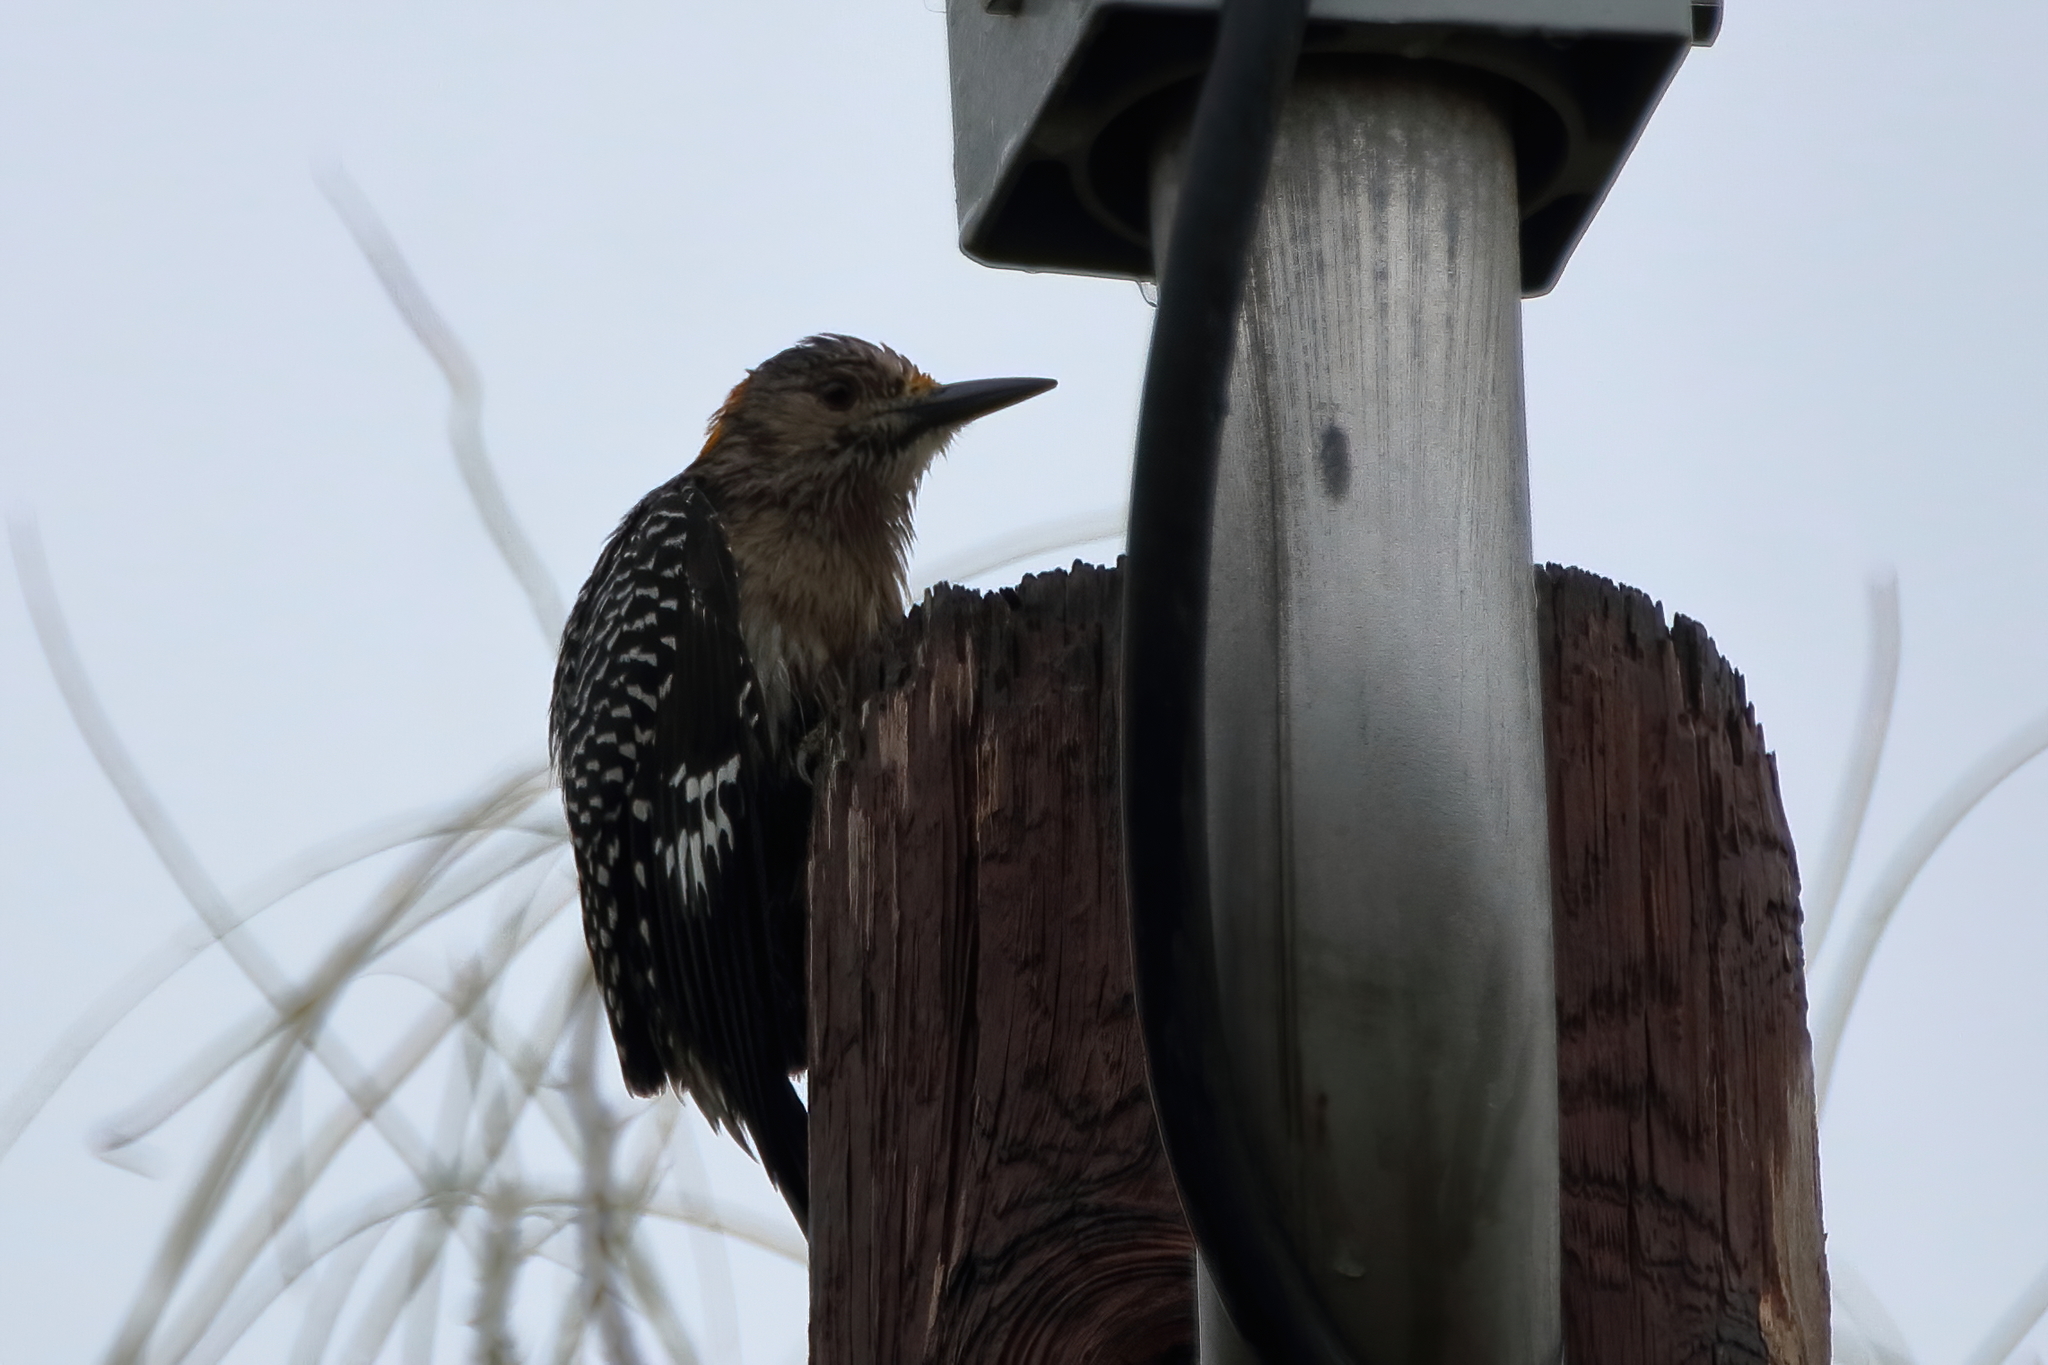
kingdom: Animalia
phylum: Chordata
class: Aves
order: Piciformes
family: Picidae
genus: Melanerpes
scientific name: Melanerpes aurifrons
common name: Golden-fronted woodpecker
